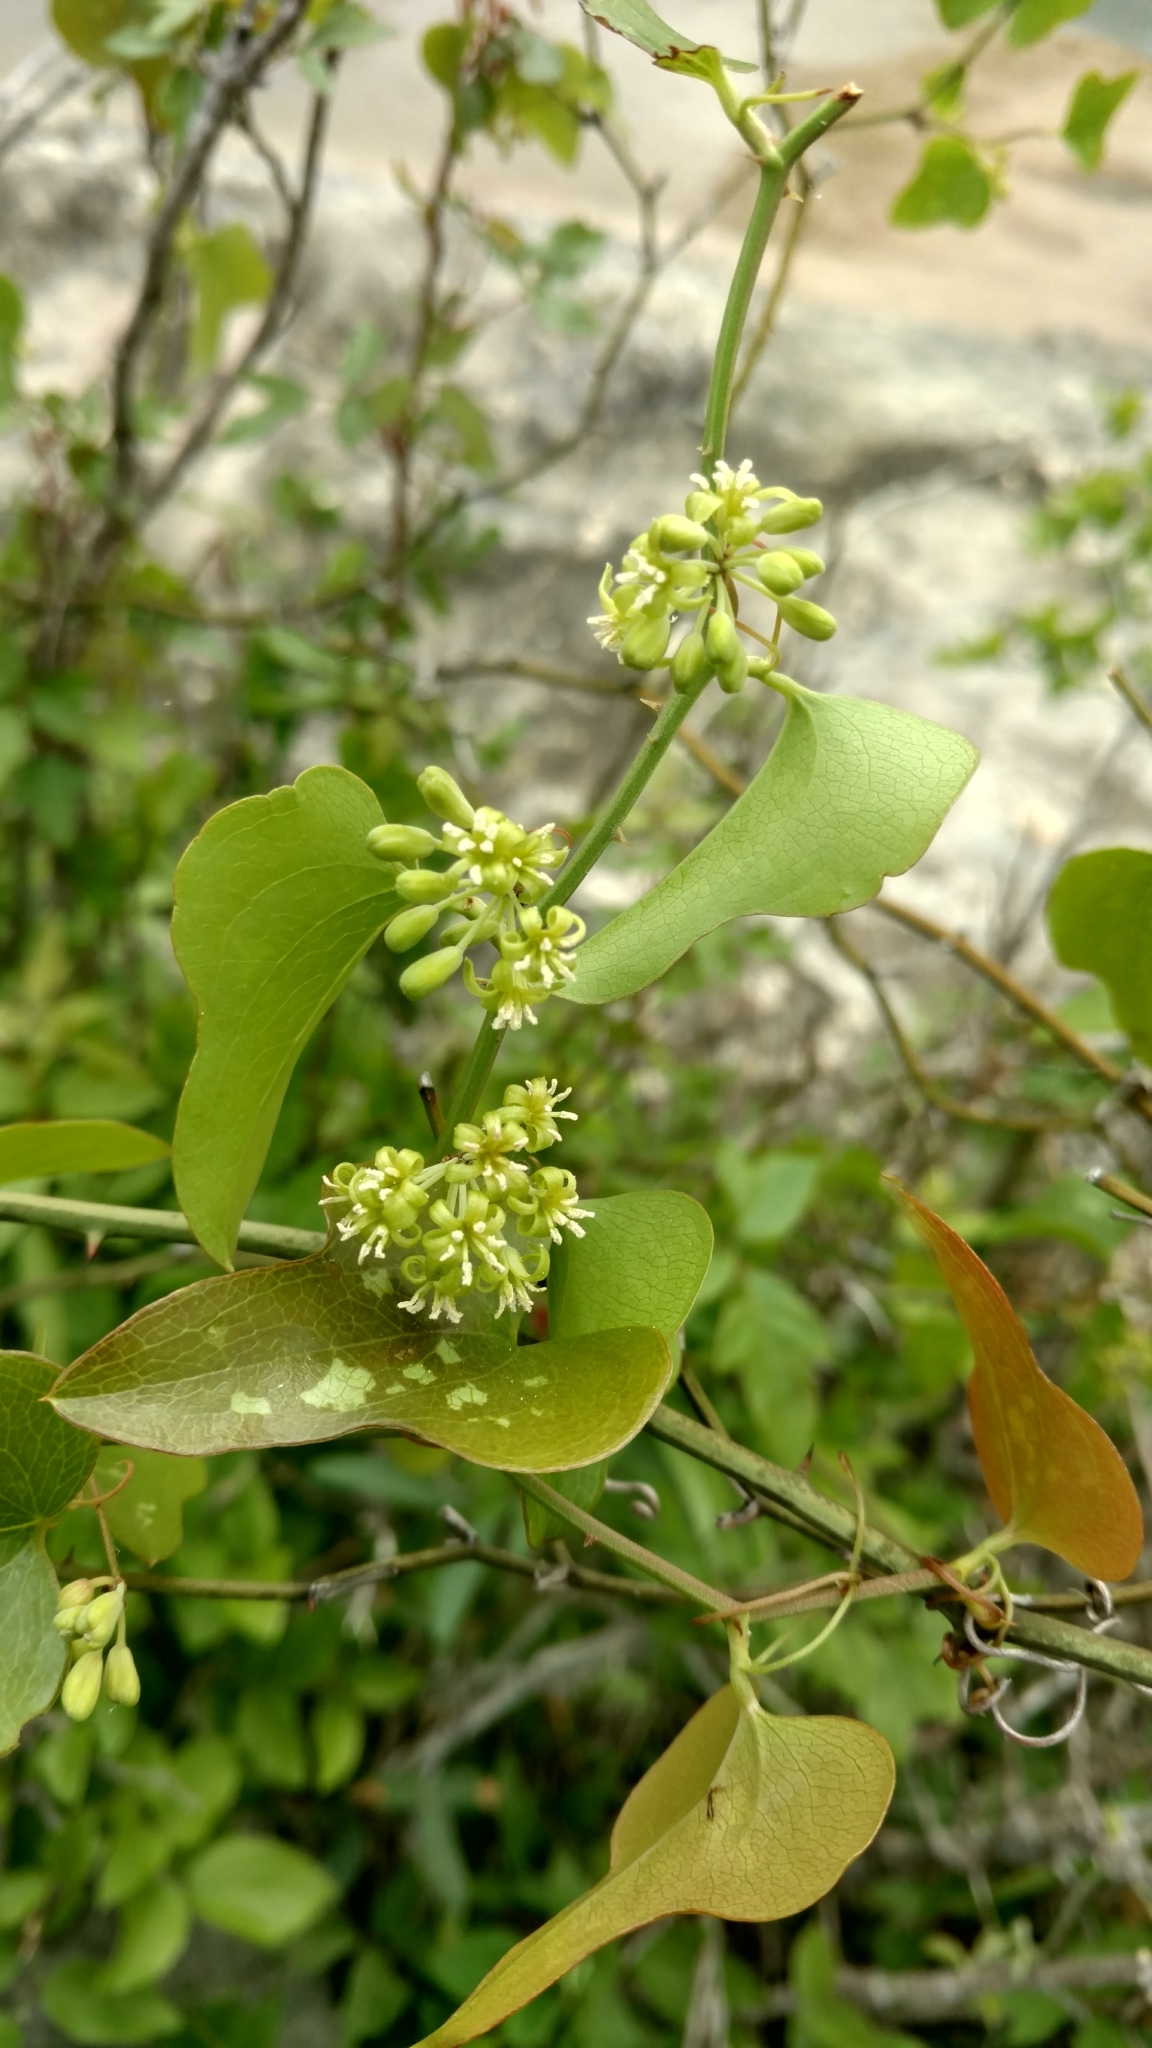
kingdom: Plantae
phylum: Tracheophyta
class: Liliopsida
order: Liliales
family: Smilacaceae
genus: Smilax
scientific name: Smilax bona-nox
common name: Catbrier
